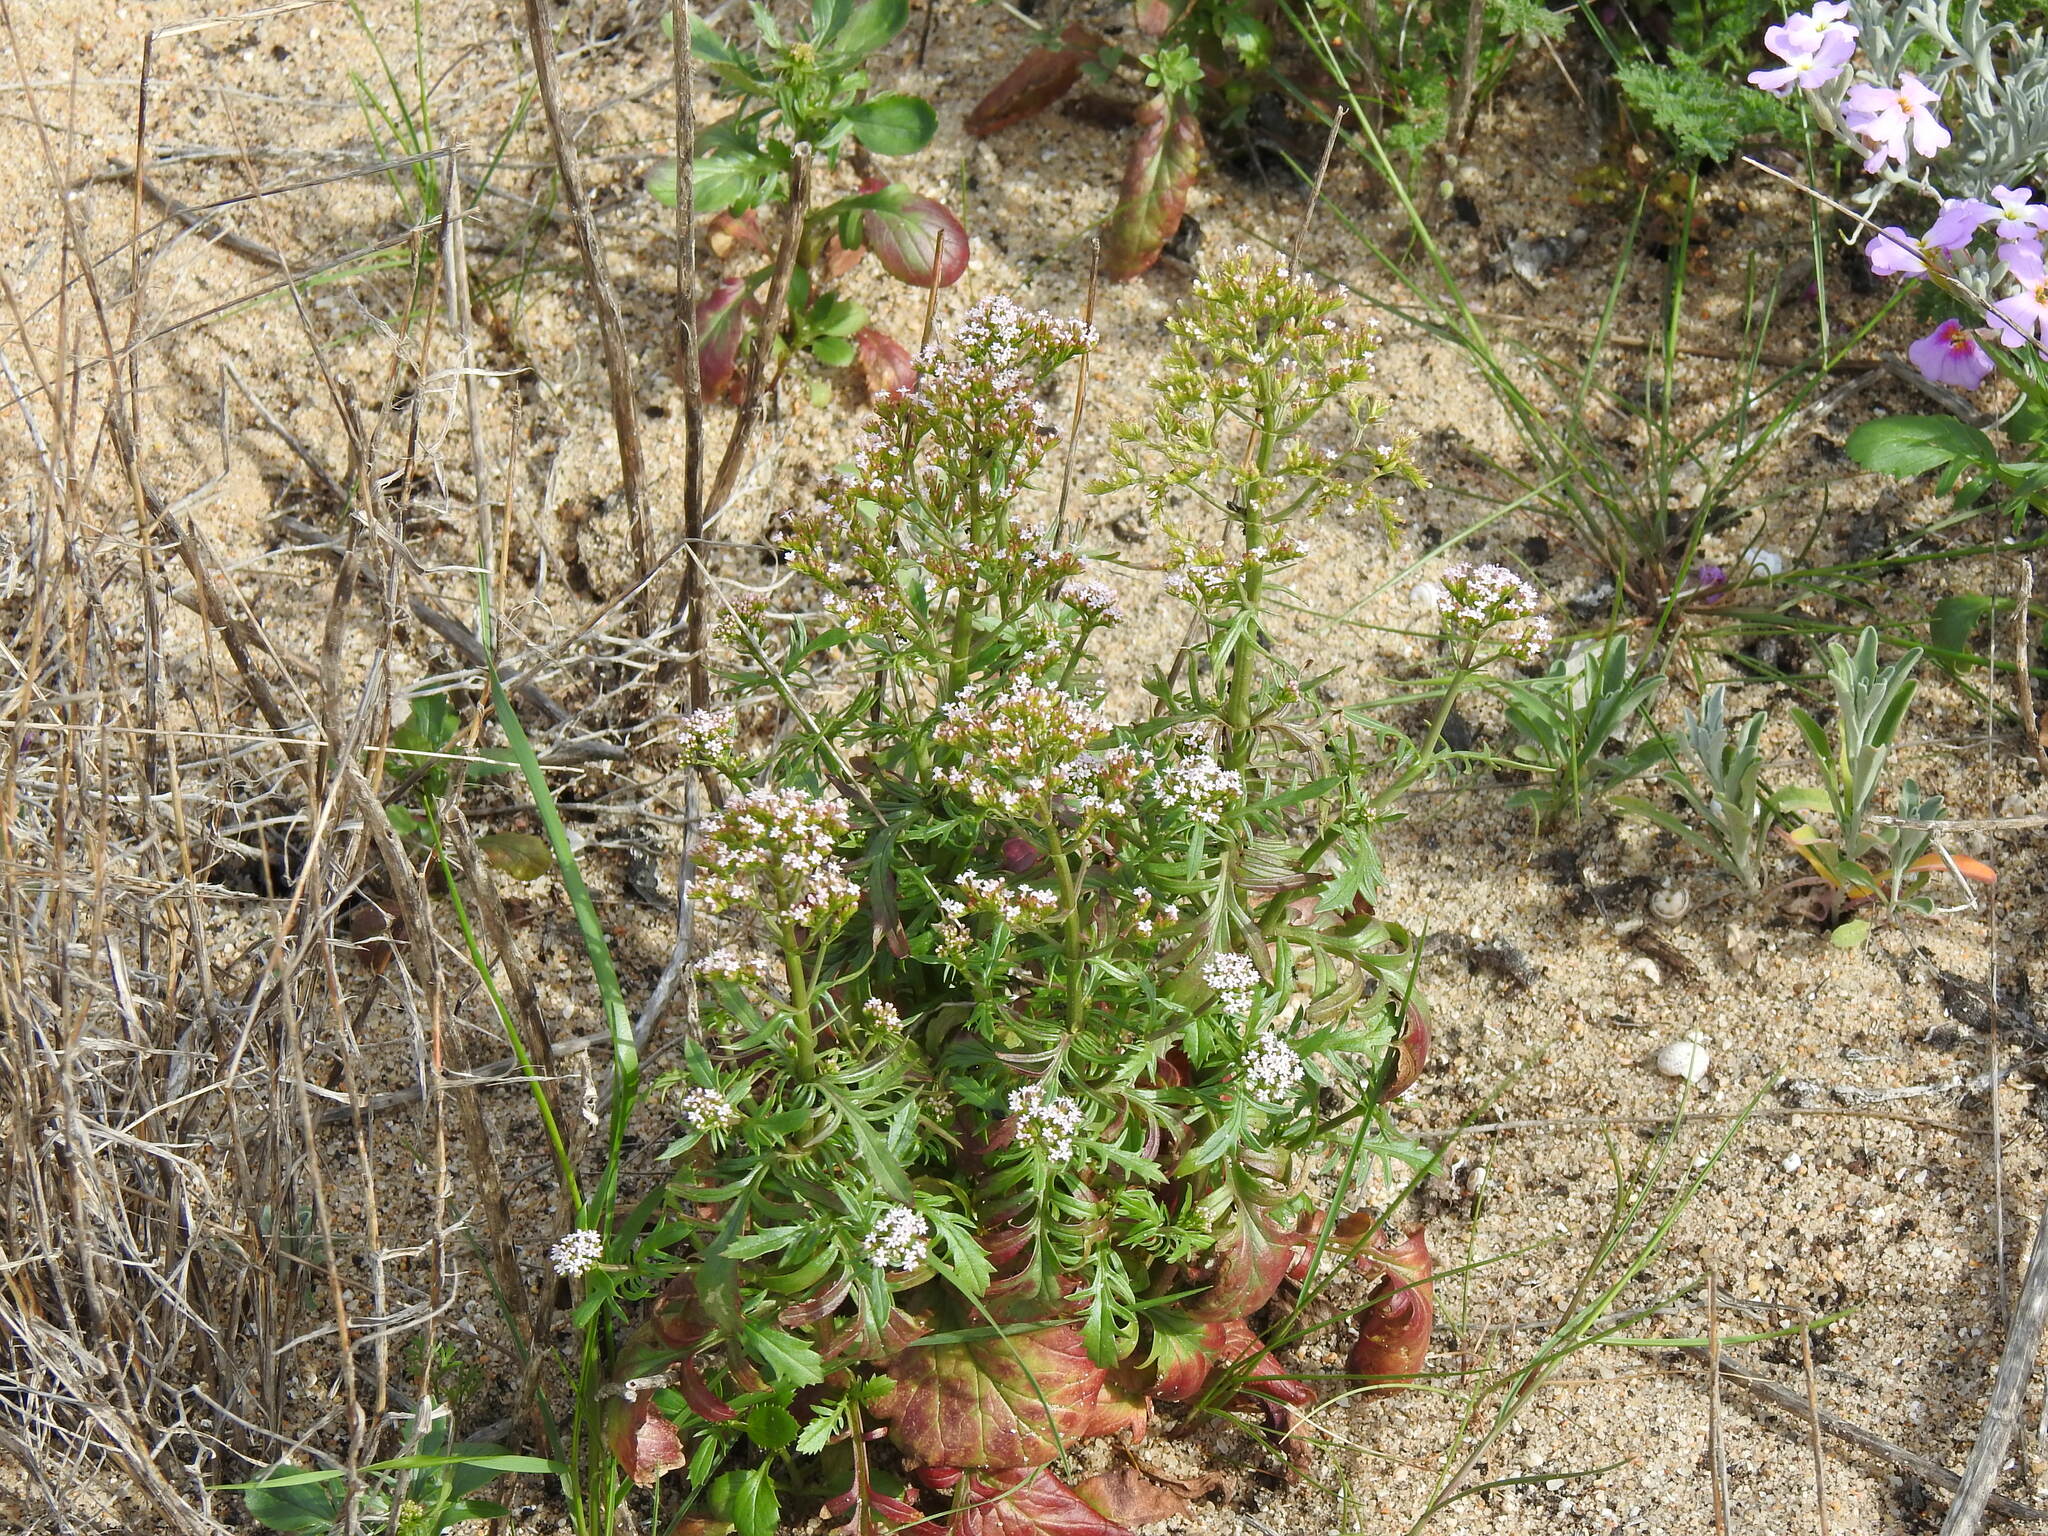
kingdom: Plantae
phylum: Tracheophyta
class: Magnoliopsida
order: Dipsacales
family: Caprifoliaceae
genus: Centranthus
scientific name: Centranthus calcitrapae
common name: Annual valerian
